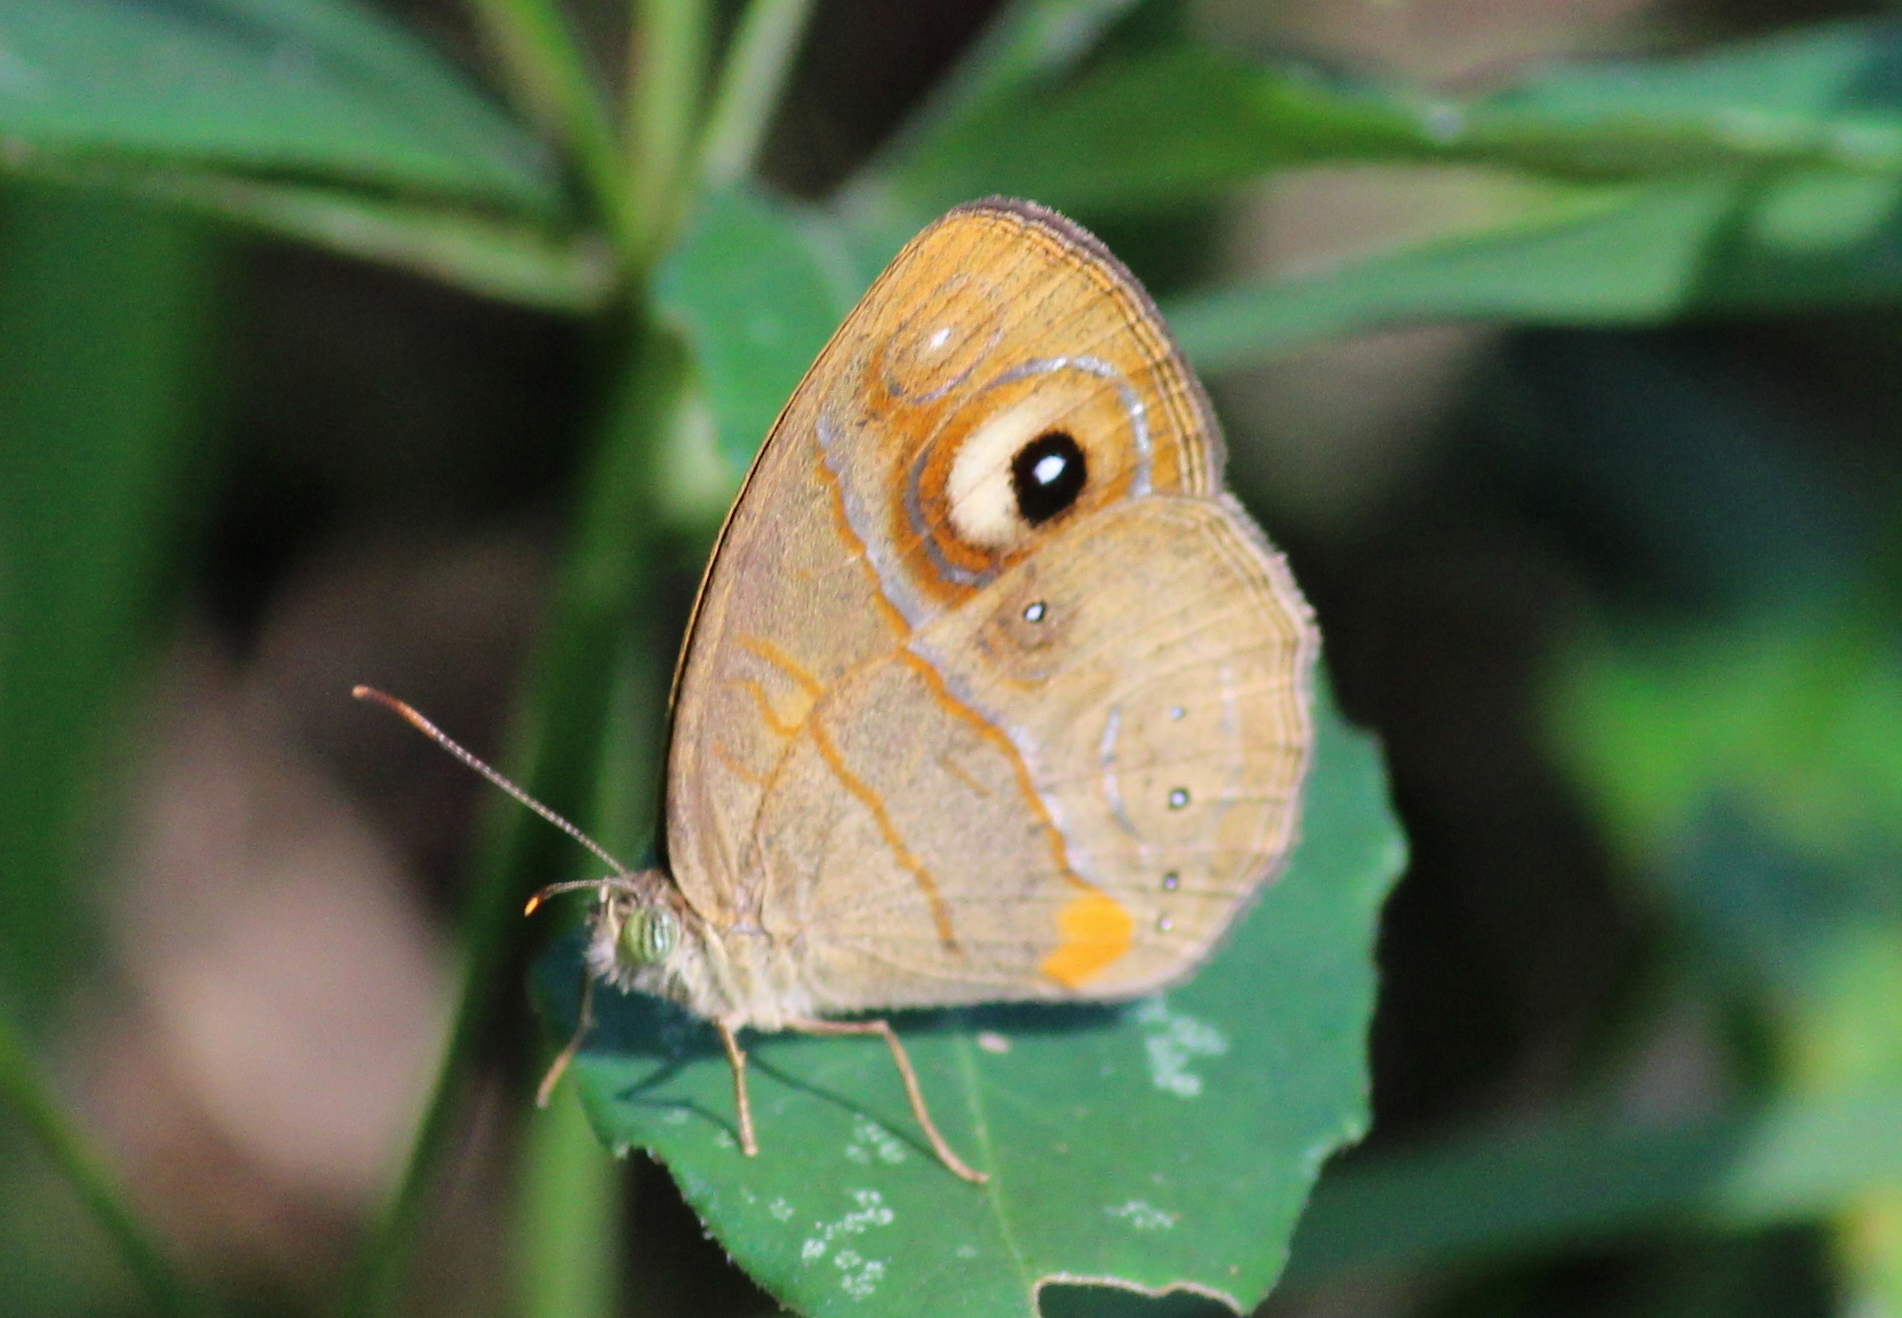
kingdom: Animalia
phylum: Arthropoda
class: Insecta
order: Lepidoptera
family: Nymphalidae
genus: Mycalesis
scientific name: Mycalesis patnia
